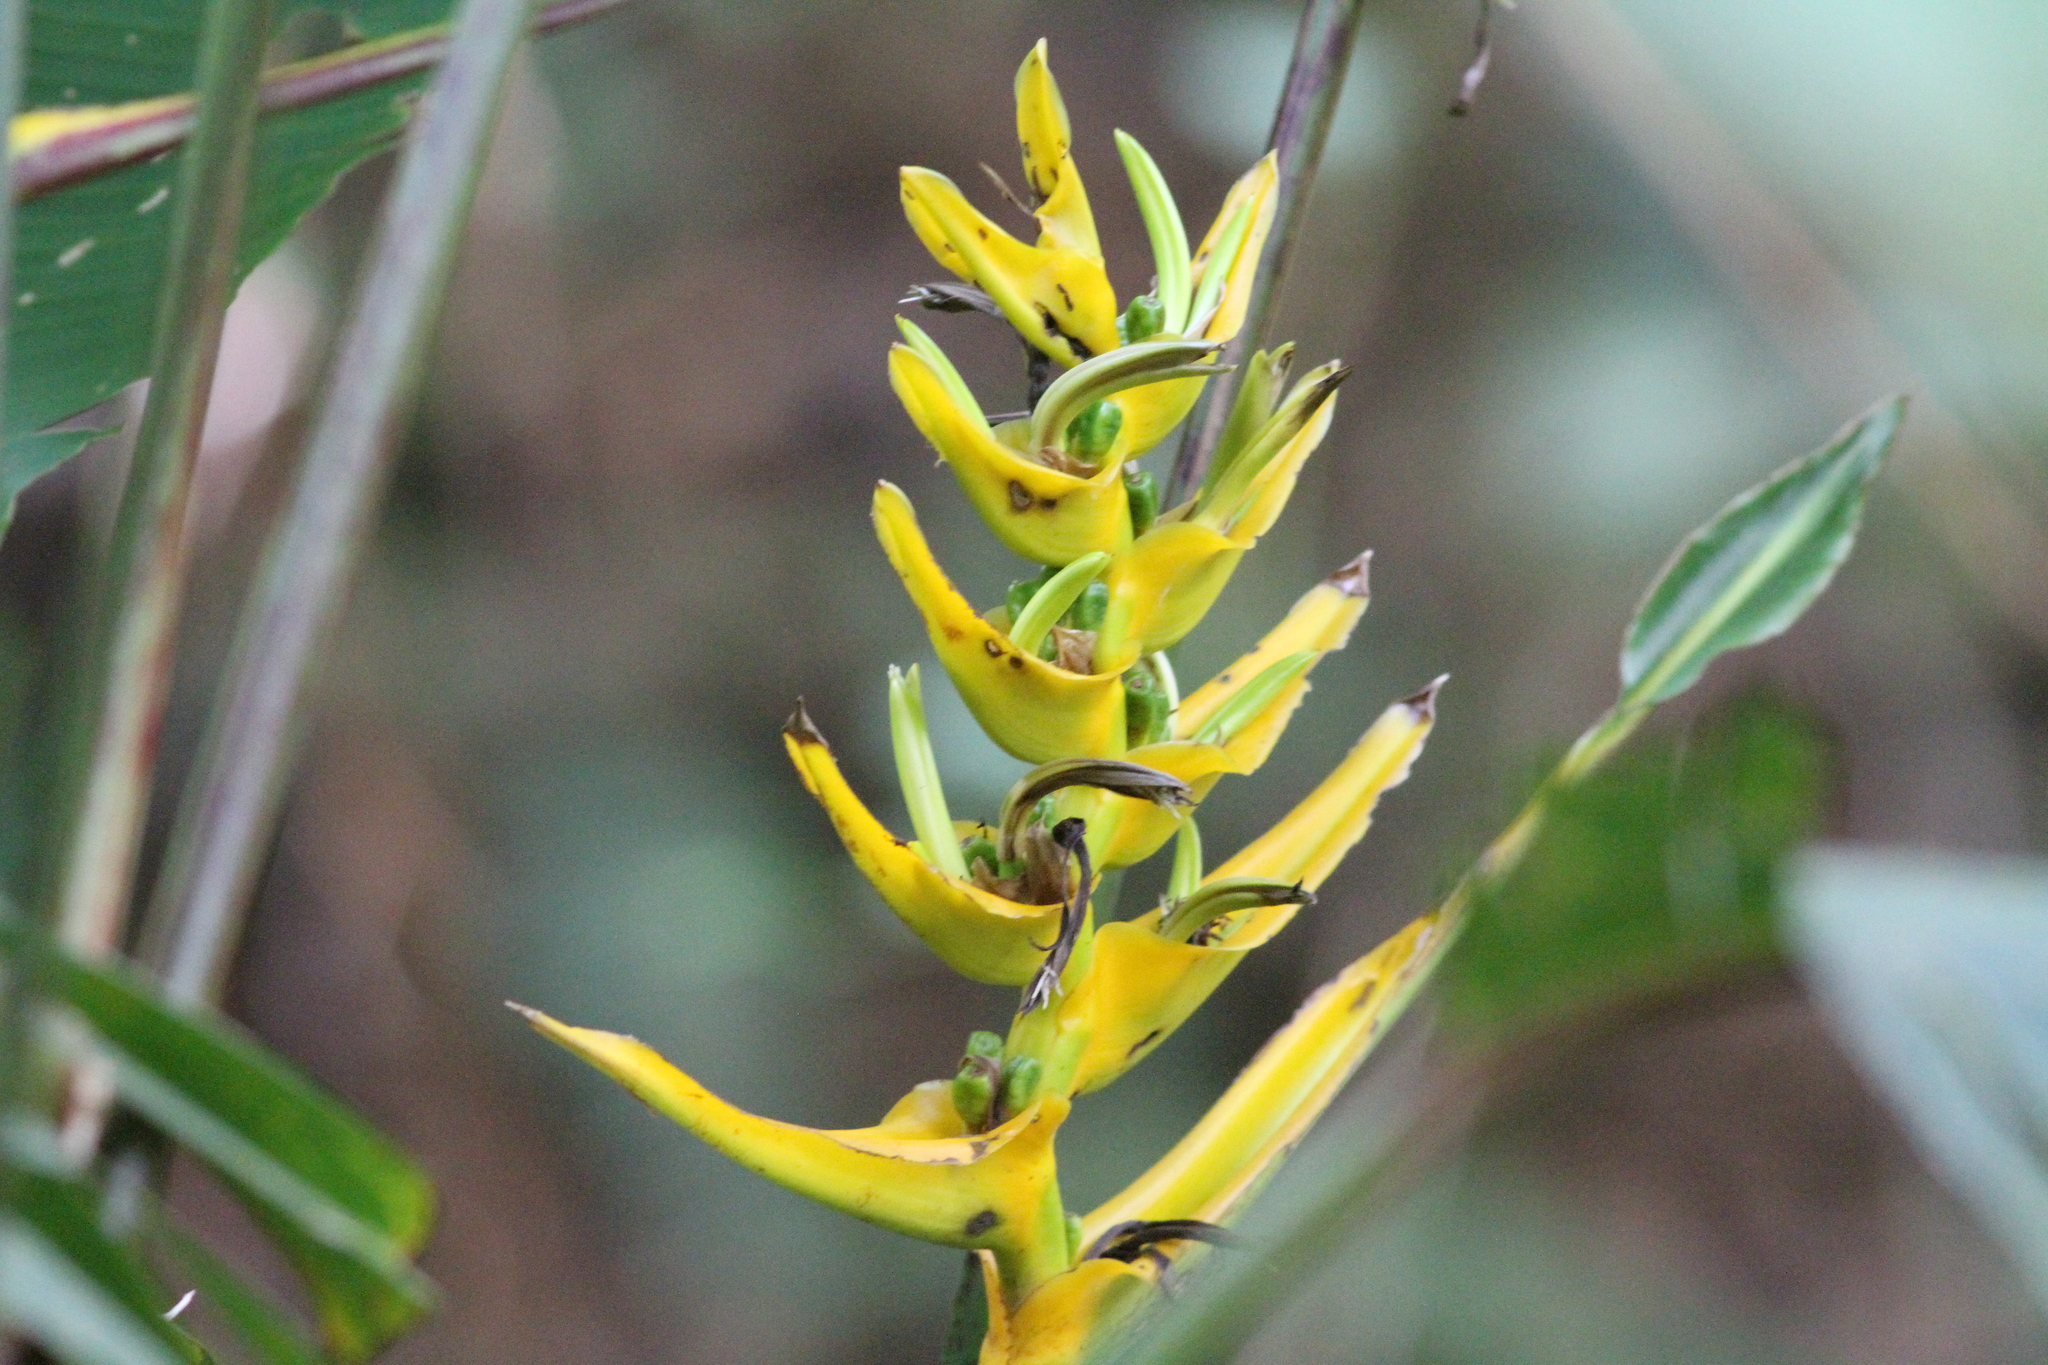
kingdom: Plantae
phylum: Tracheophyta
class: Liliopsida
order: Zingiberales
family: Heliconiaceae
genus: Heliconia
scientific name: Heliconia lankesteri
